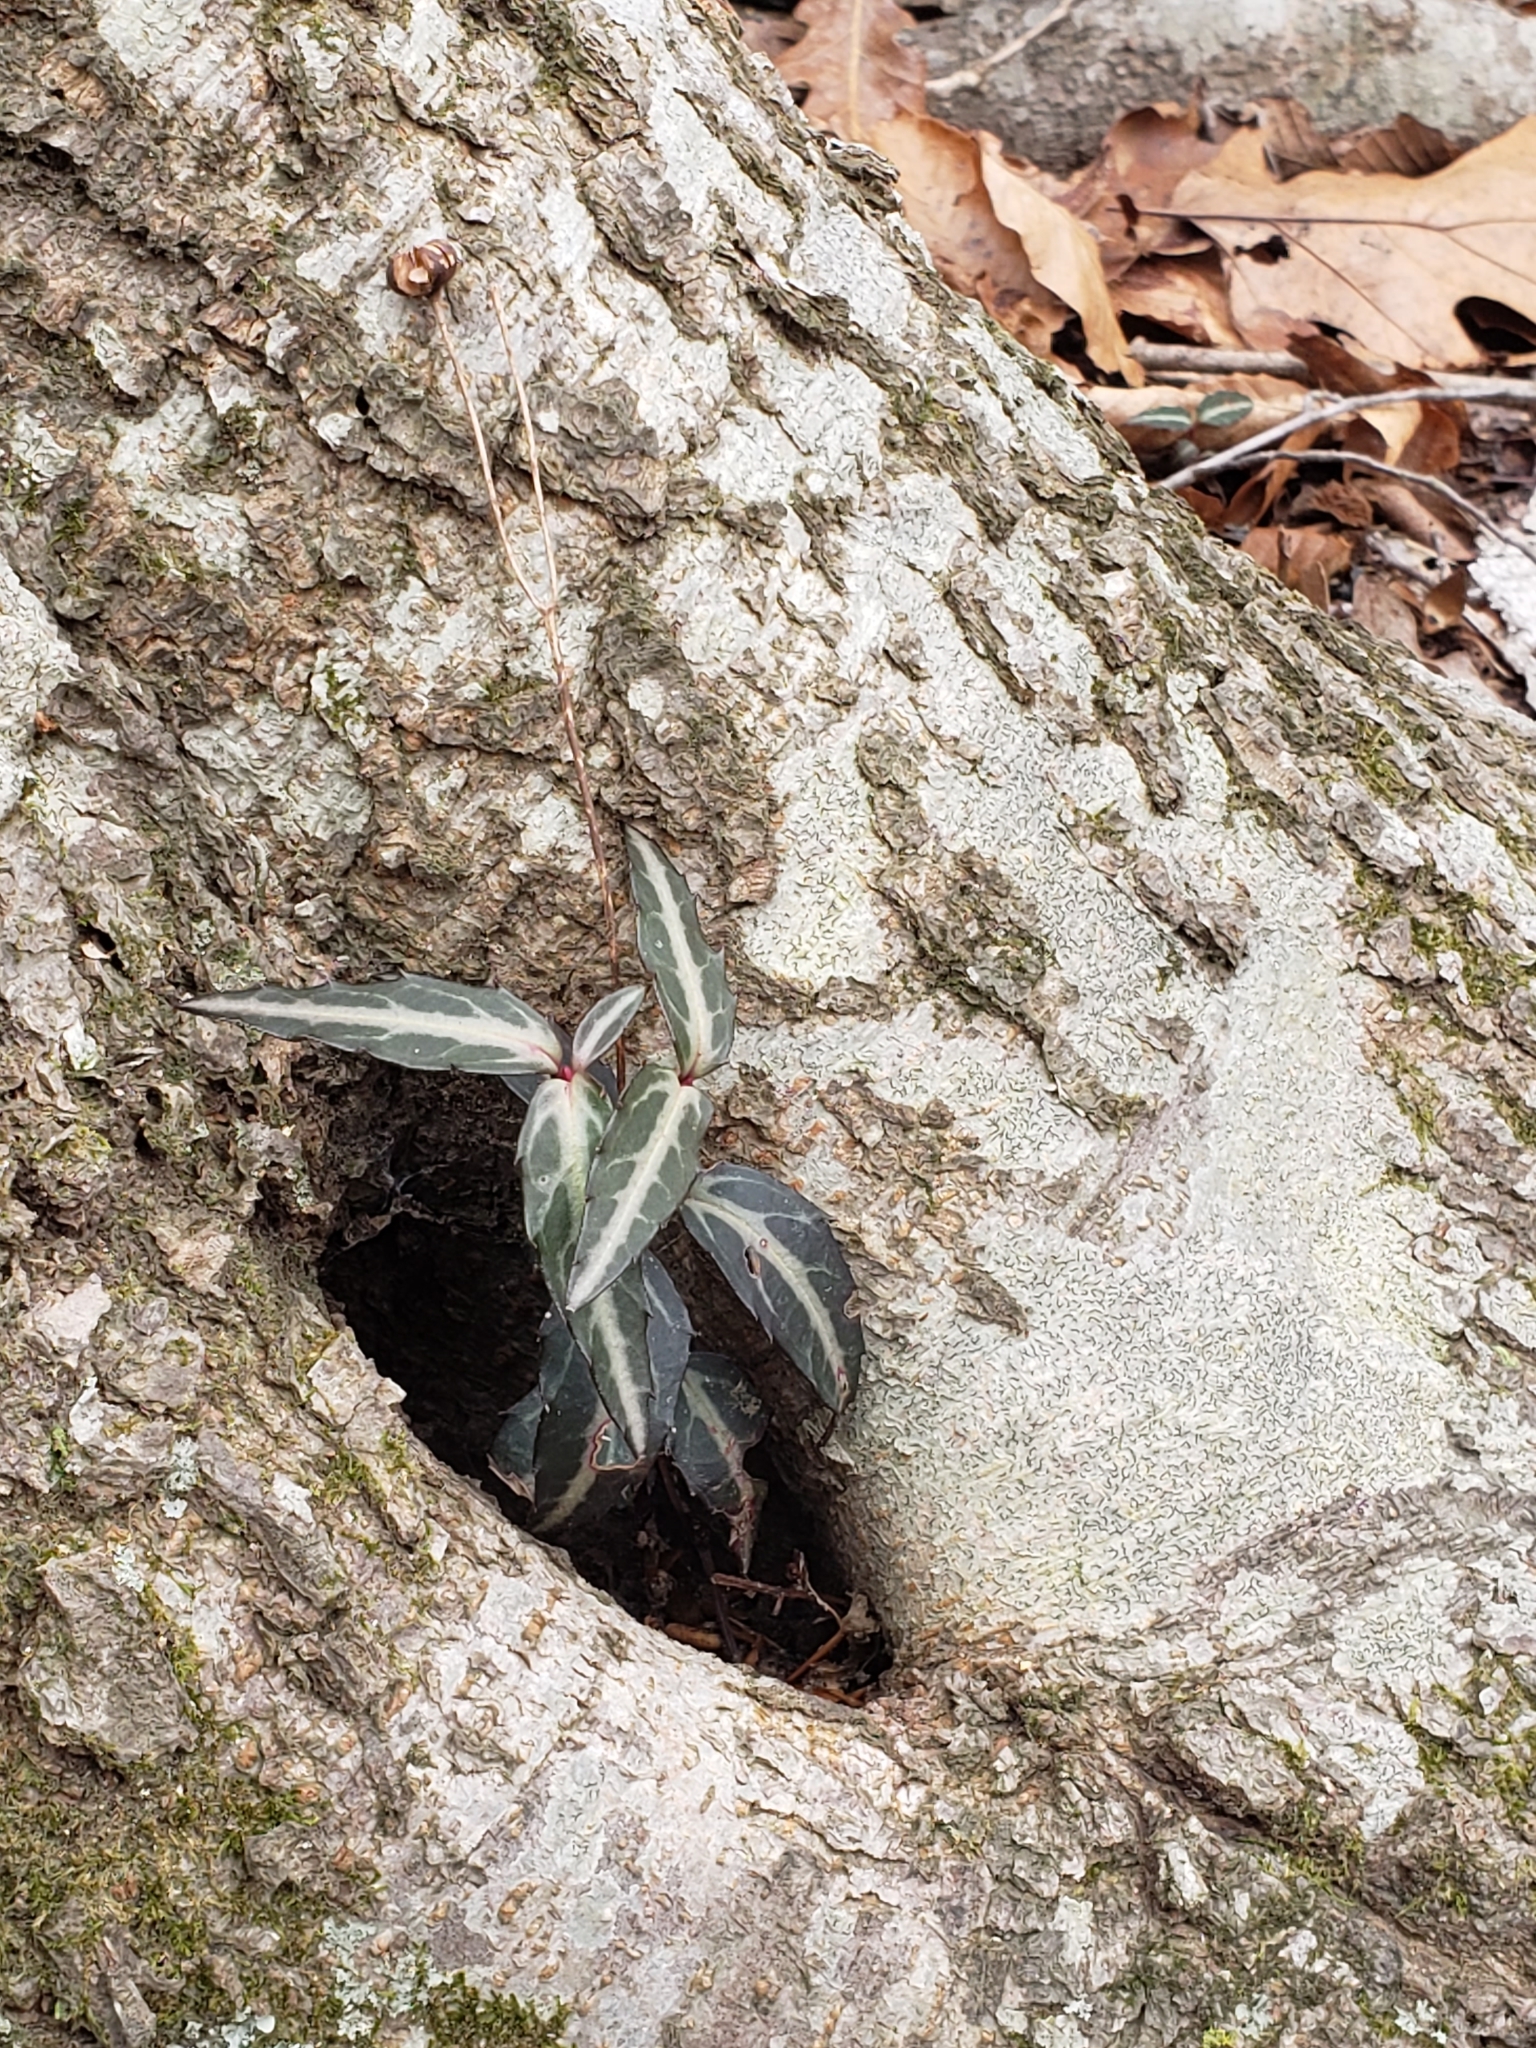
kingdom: Plantae
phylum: Tracheophyta
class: Magnoliopsida
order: Ericales
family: Ericaceae
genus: Chimaphila
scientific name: Chimaphila maculata
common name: Spotted pipsissewa
